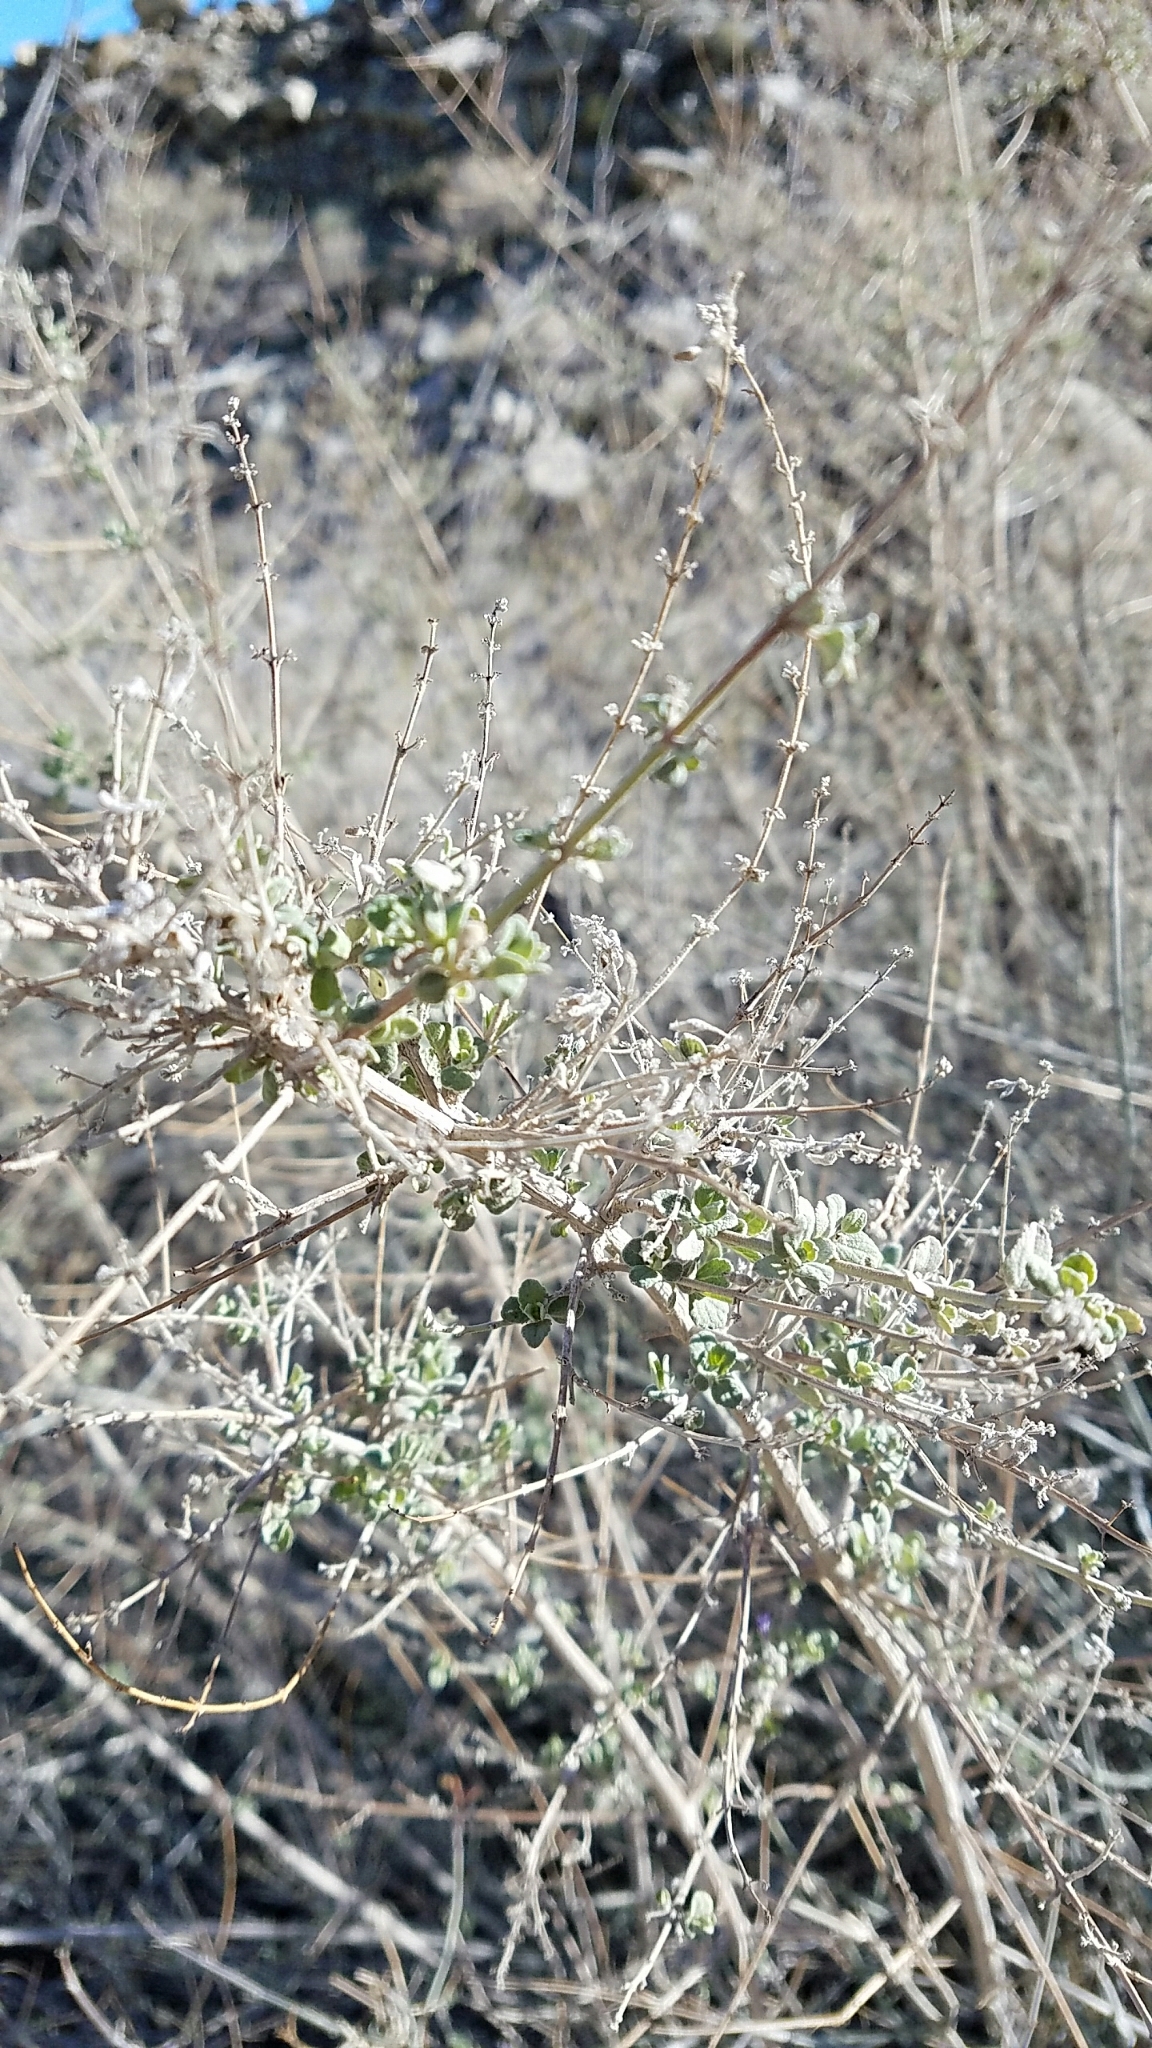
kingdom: Plantae
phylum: Tracheophyta
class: Magnoliopsida
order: Lamiales
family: Lamiaceae
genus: Condea
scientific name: Condea emoryi
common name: Chia
